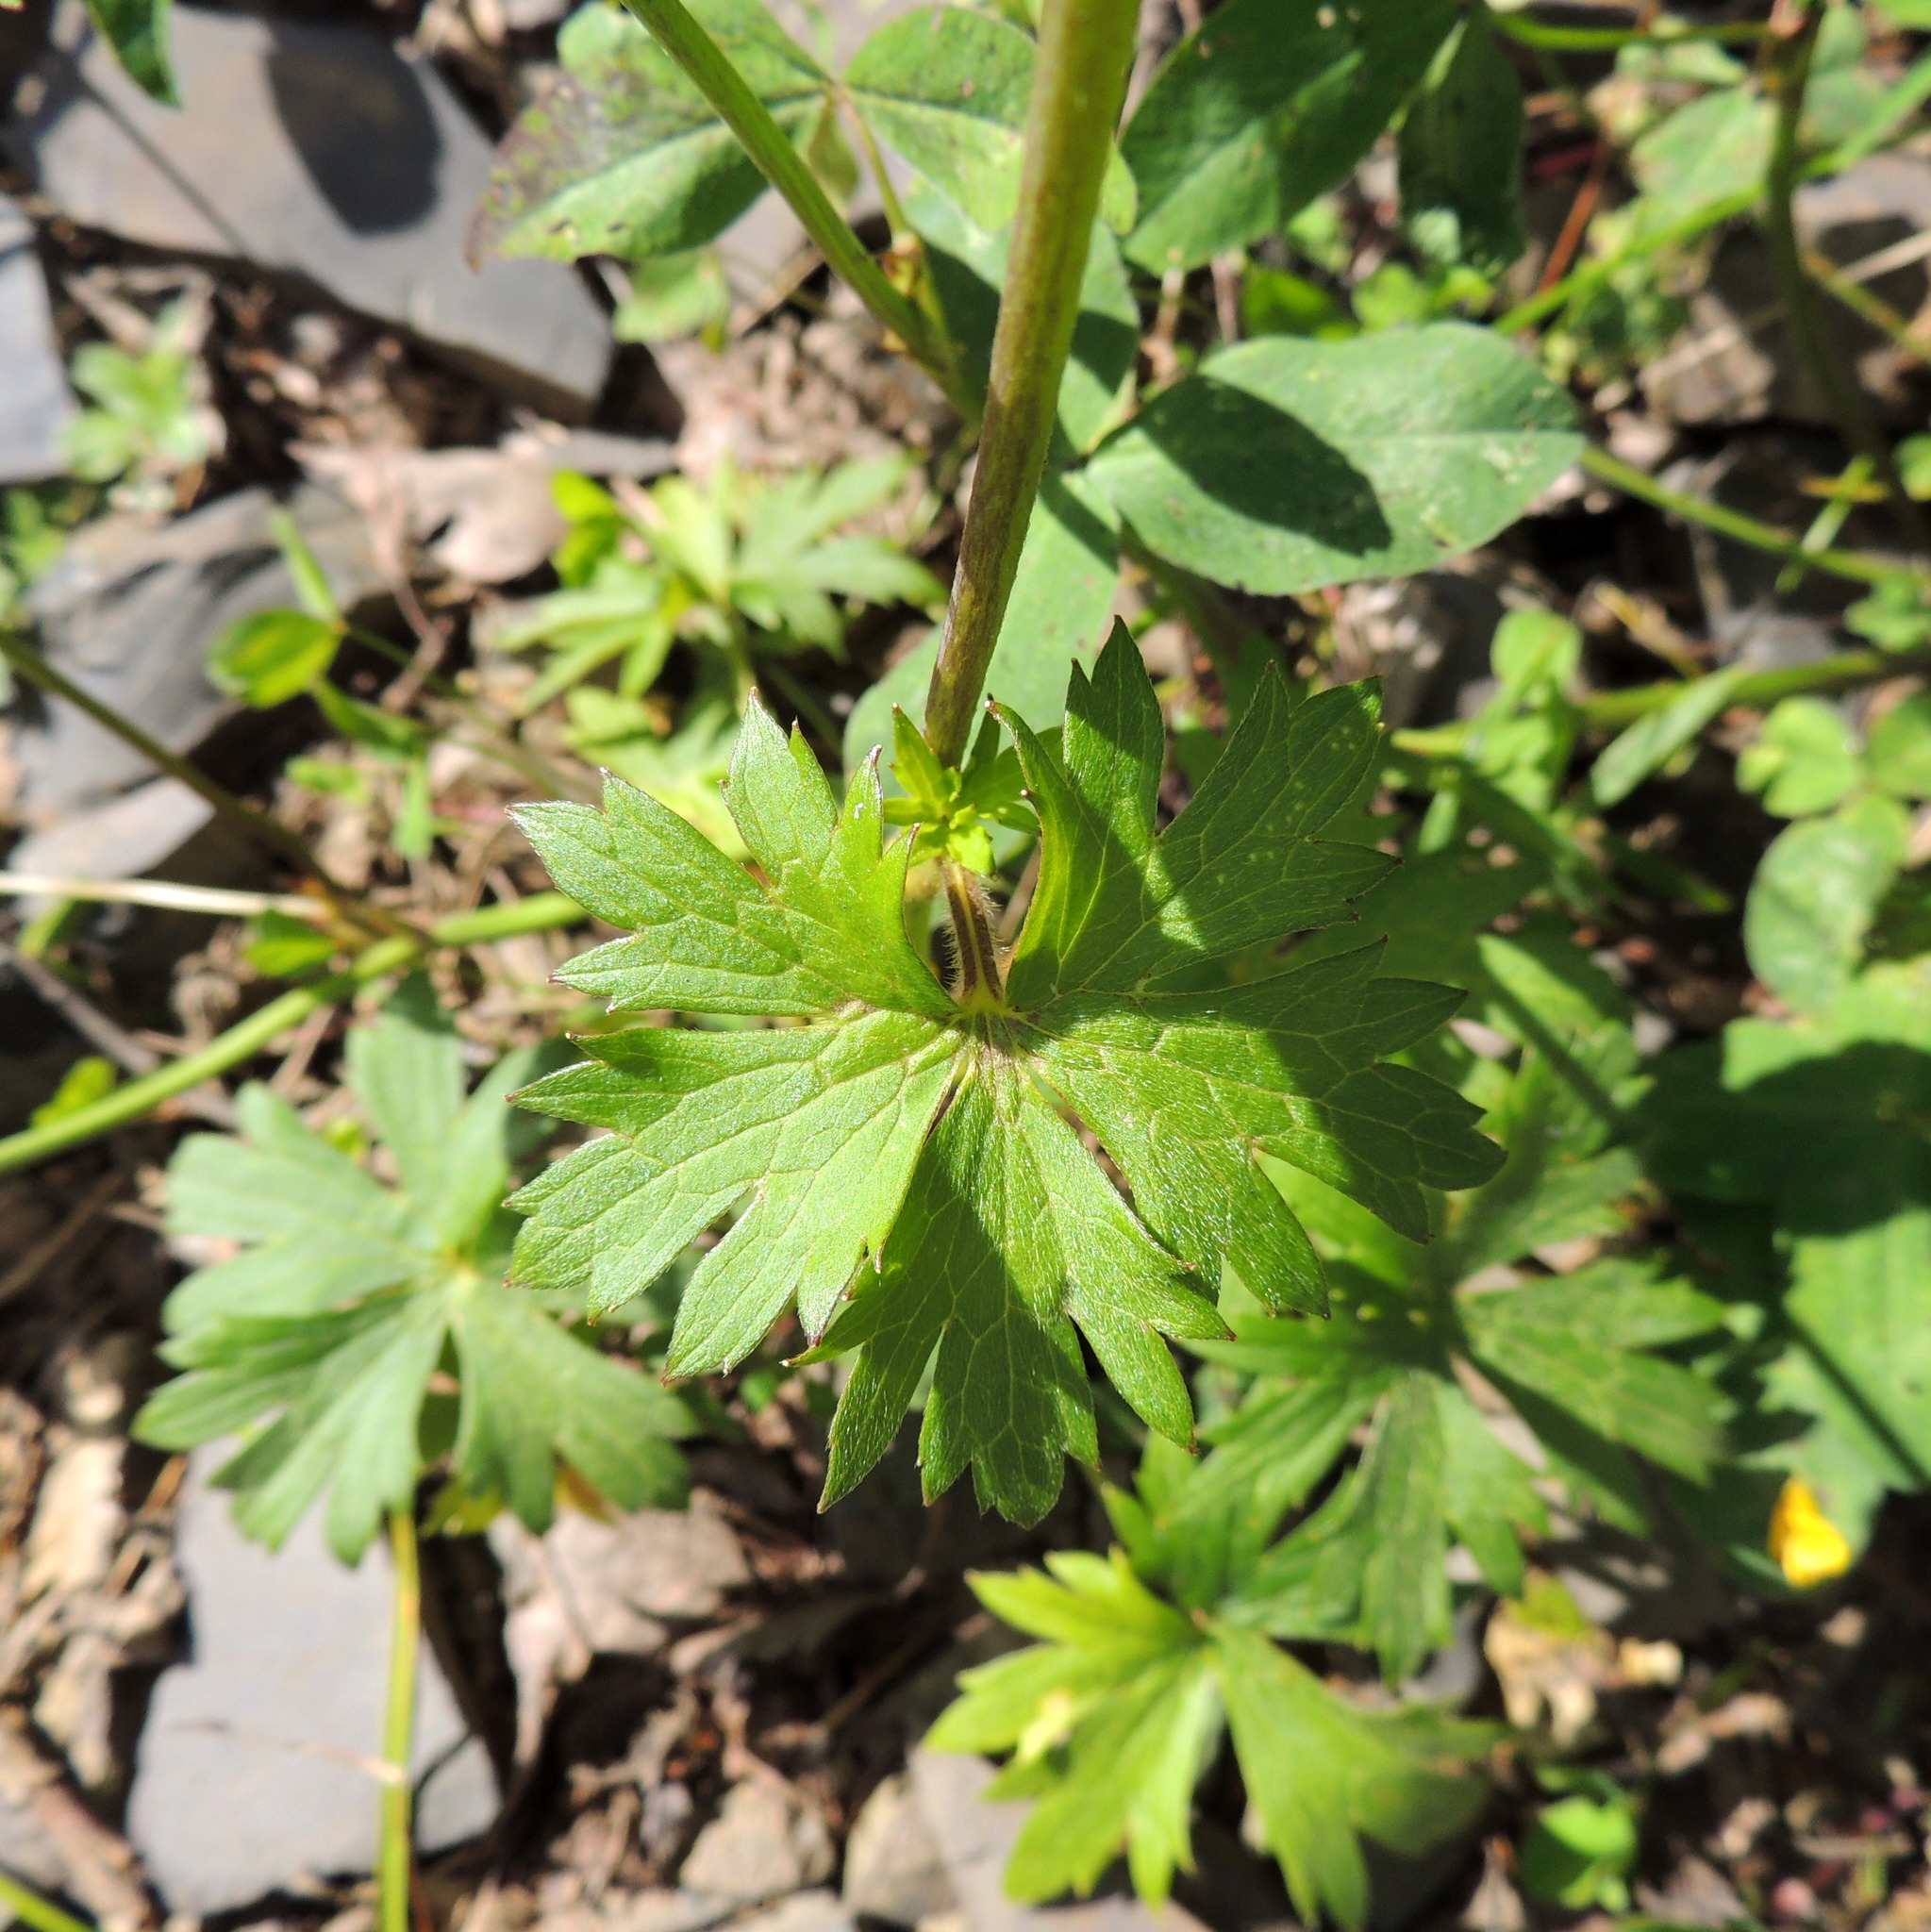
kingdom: Plantae
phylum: Tracheophyta
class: Magnoliopsida
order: Ranunculales
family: Ranunculaceae
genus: Ranunculus
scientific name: Ranunculus propinquus
